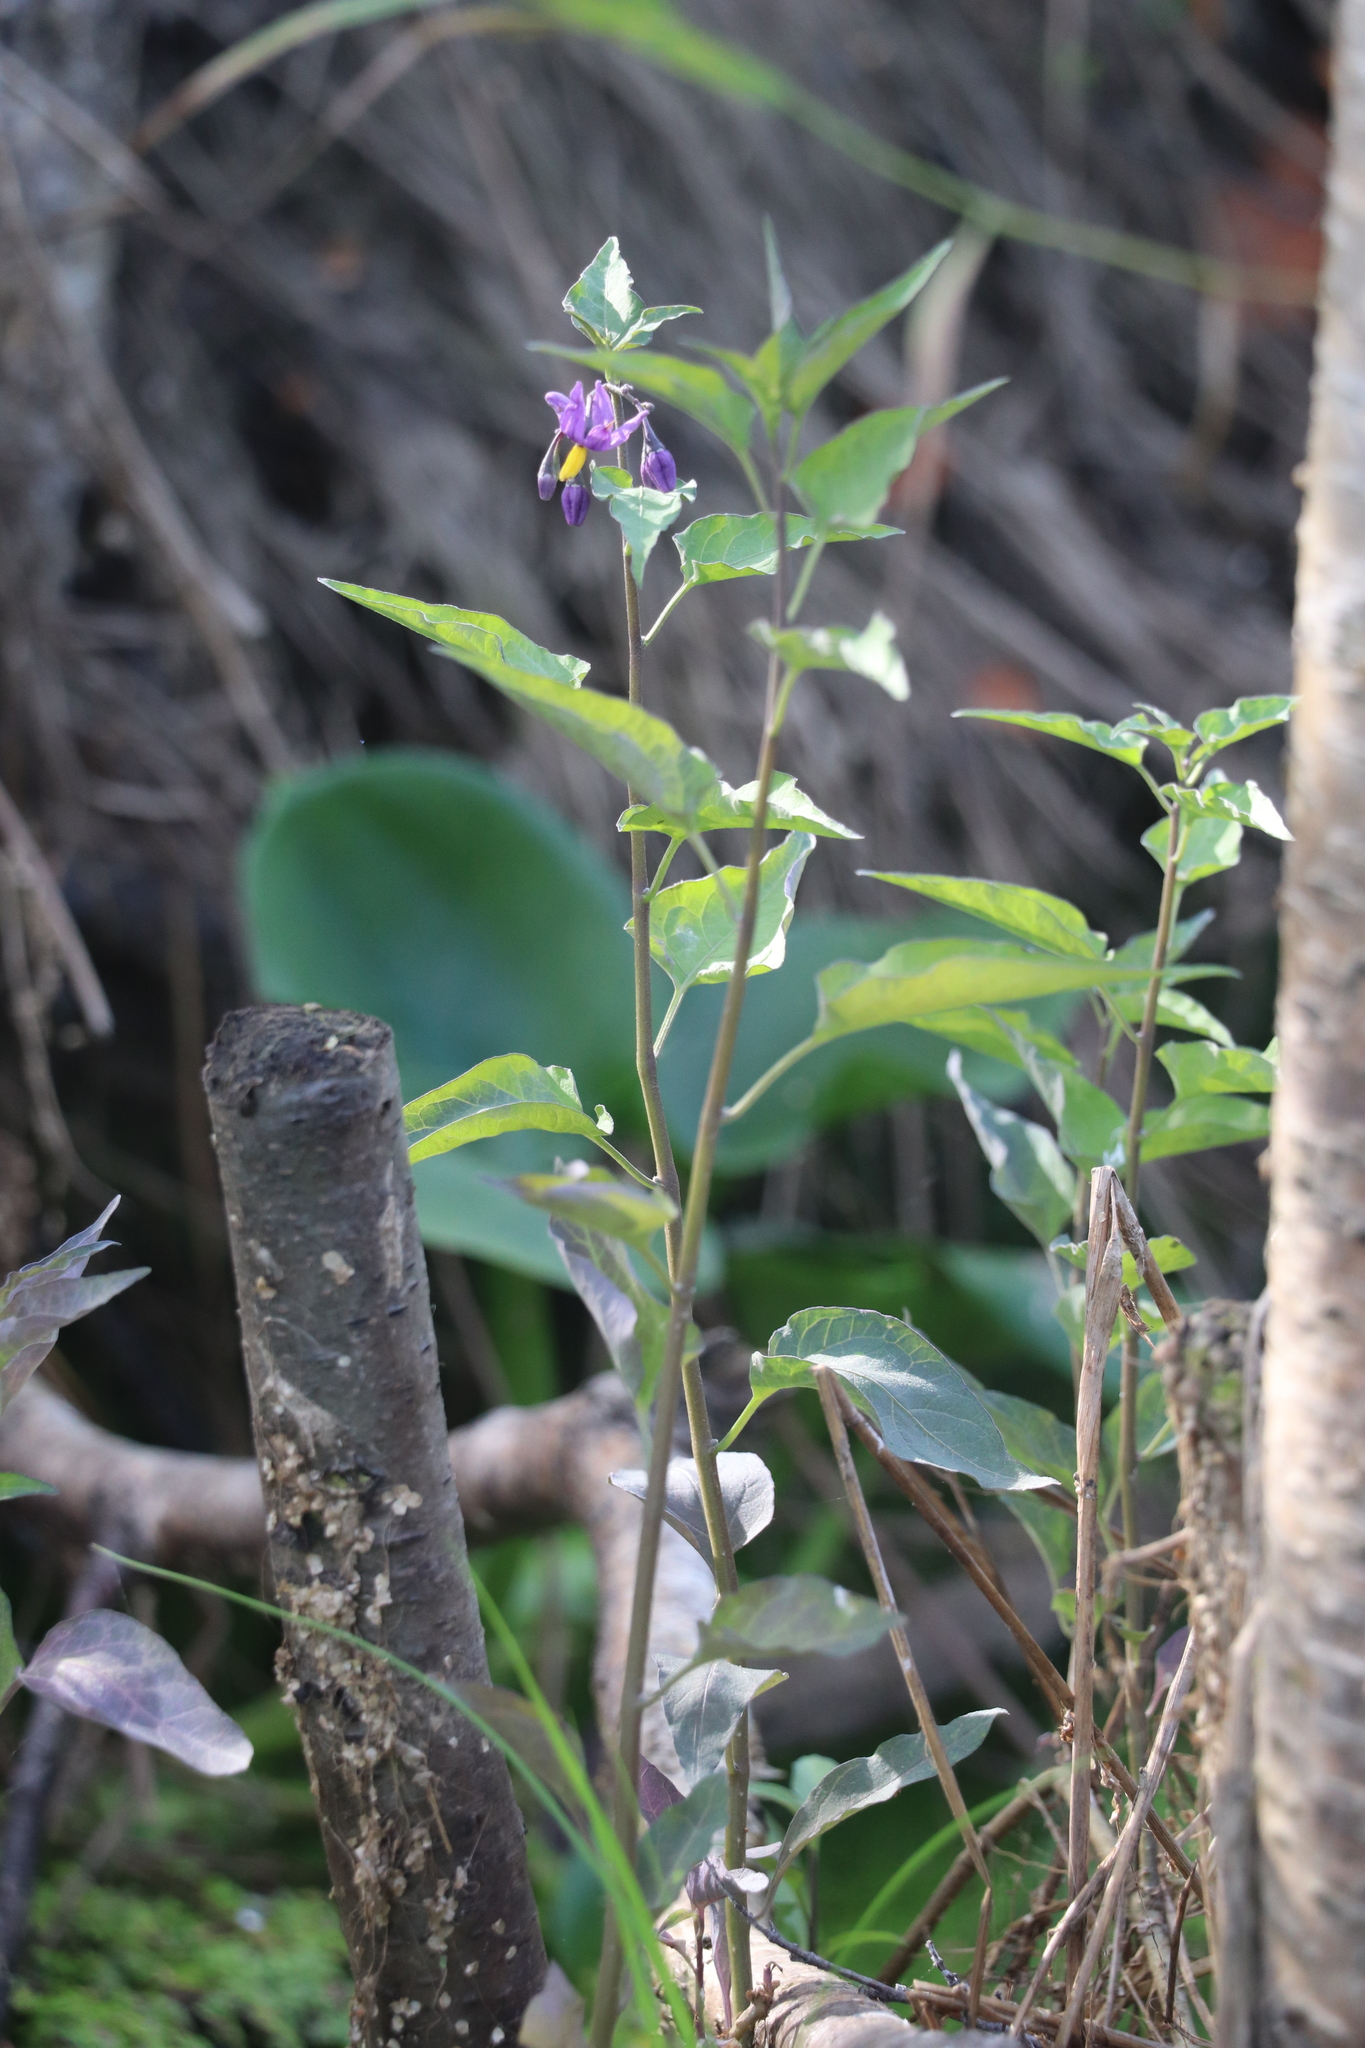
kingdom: Plantae
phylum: Tracheophyta
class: Magnoliopsida
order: Solanales
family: Solanaceae
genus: Solanum
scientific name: Solanum dulcamara
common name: Climbing nightshade
